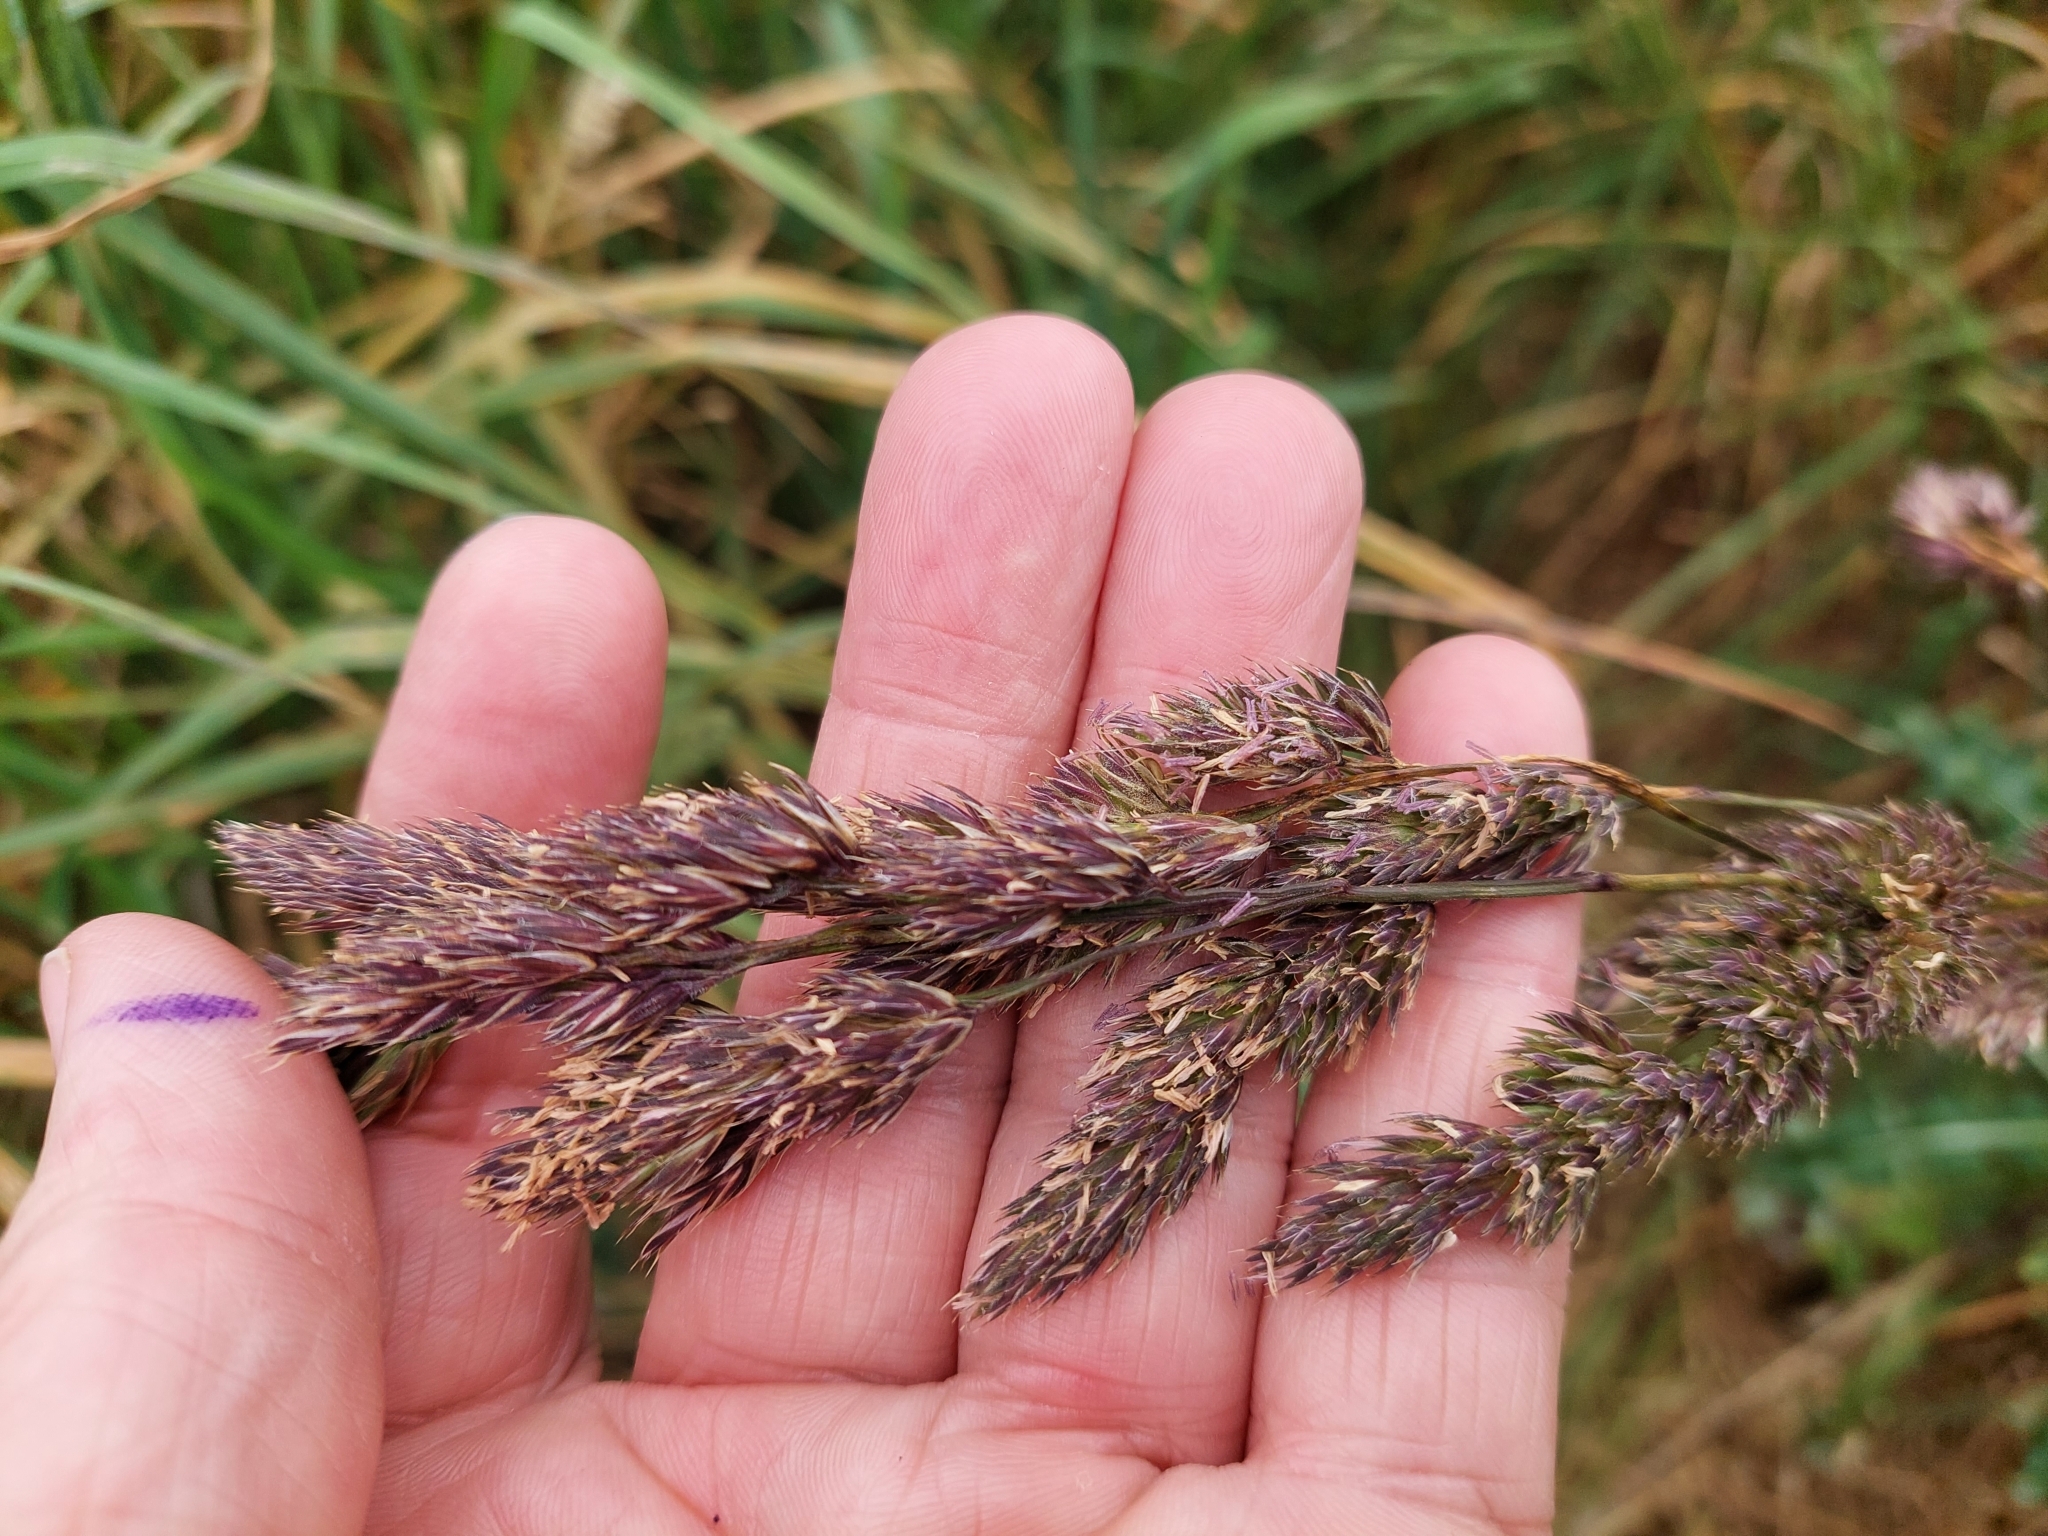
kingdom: Plantae
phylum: Tracheophyta
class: Liliopsida
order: Poales
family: Poaceae
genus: Dactylis
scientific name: Dactylis glomerata
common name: Orchardgrass
